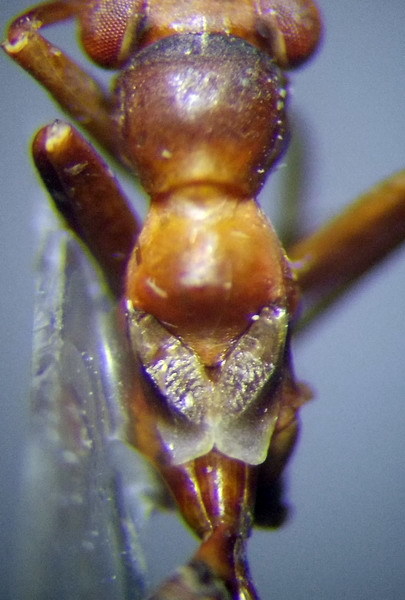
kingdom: Animalia
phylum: Arthropoda
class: Insecta
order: Hemiptera
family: Miridae
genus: Myrmecoris
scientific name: Myrmecoris gracilis
